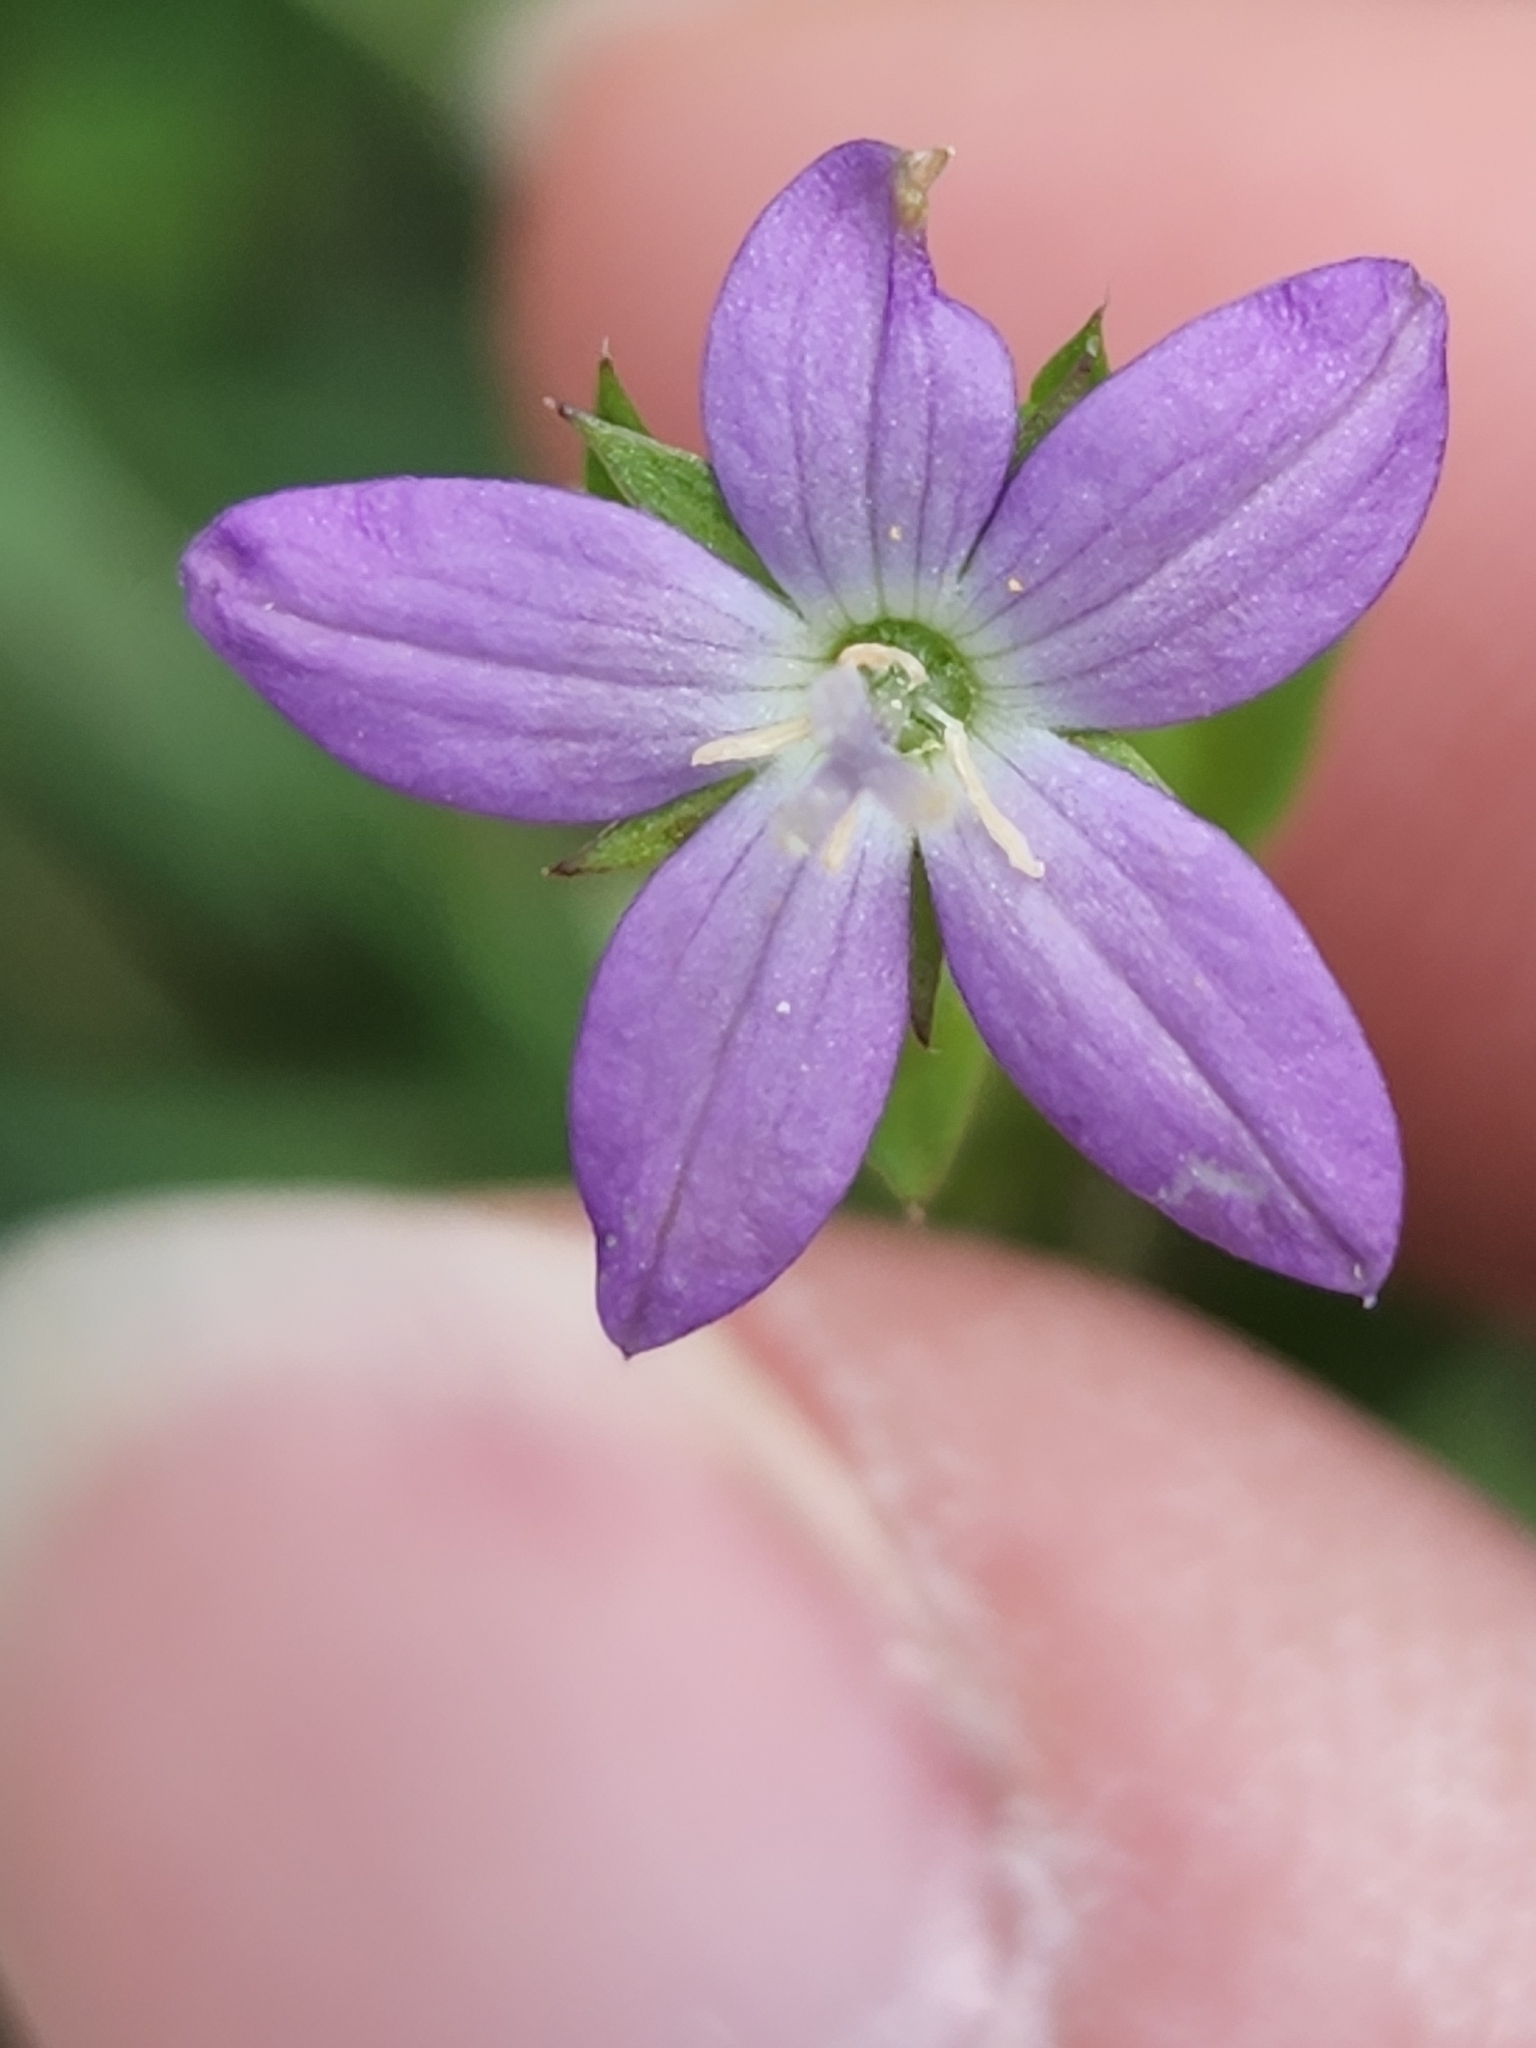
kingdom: Plantae
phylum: Tracheophyta
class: Magnoliopsida
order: Asterales
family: Campanulaceae
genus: Triodanis
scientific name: Triodanis biflora
